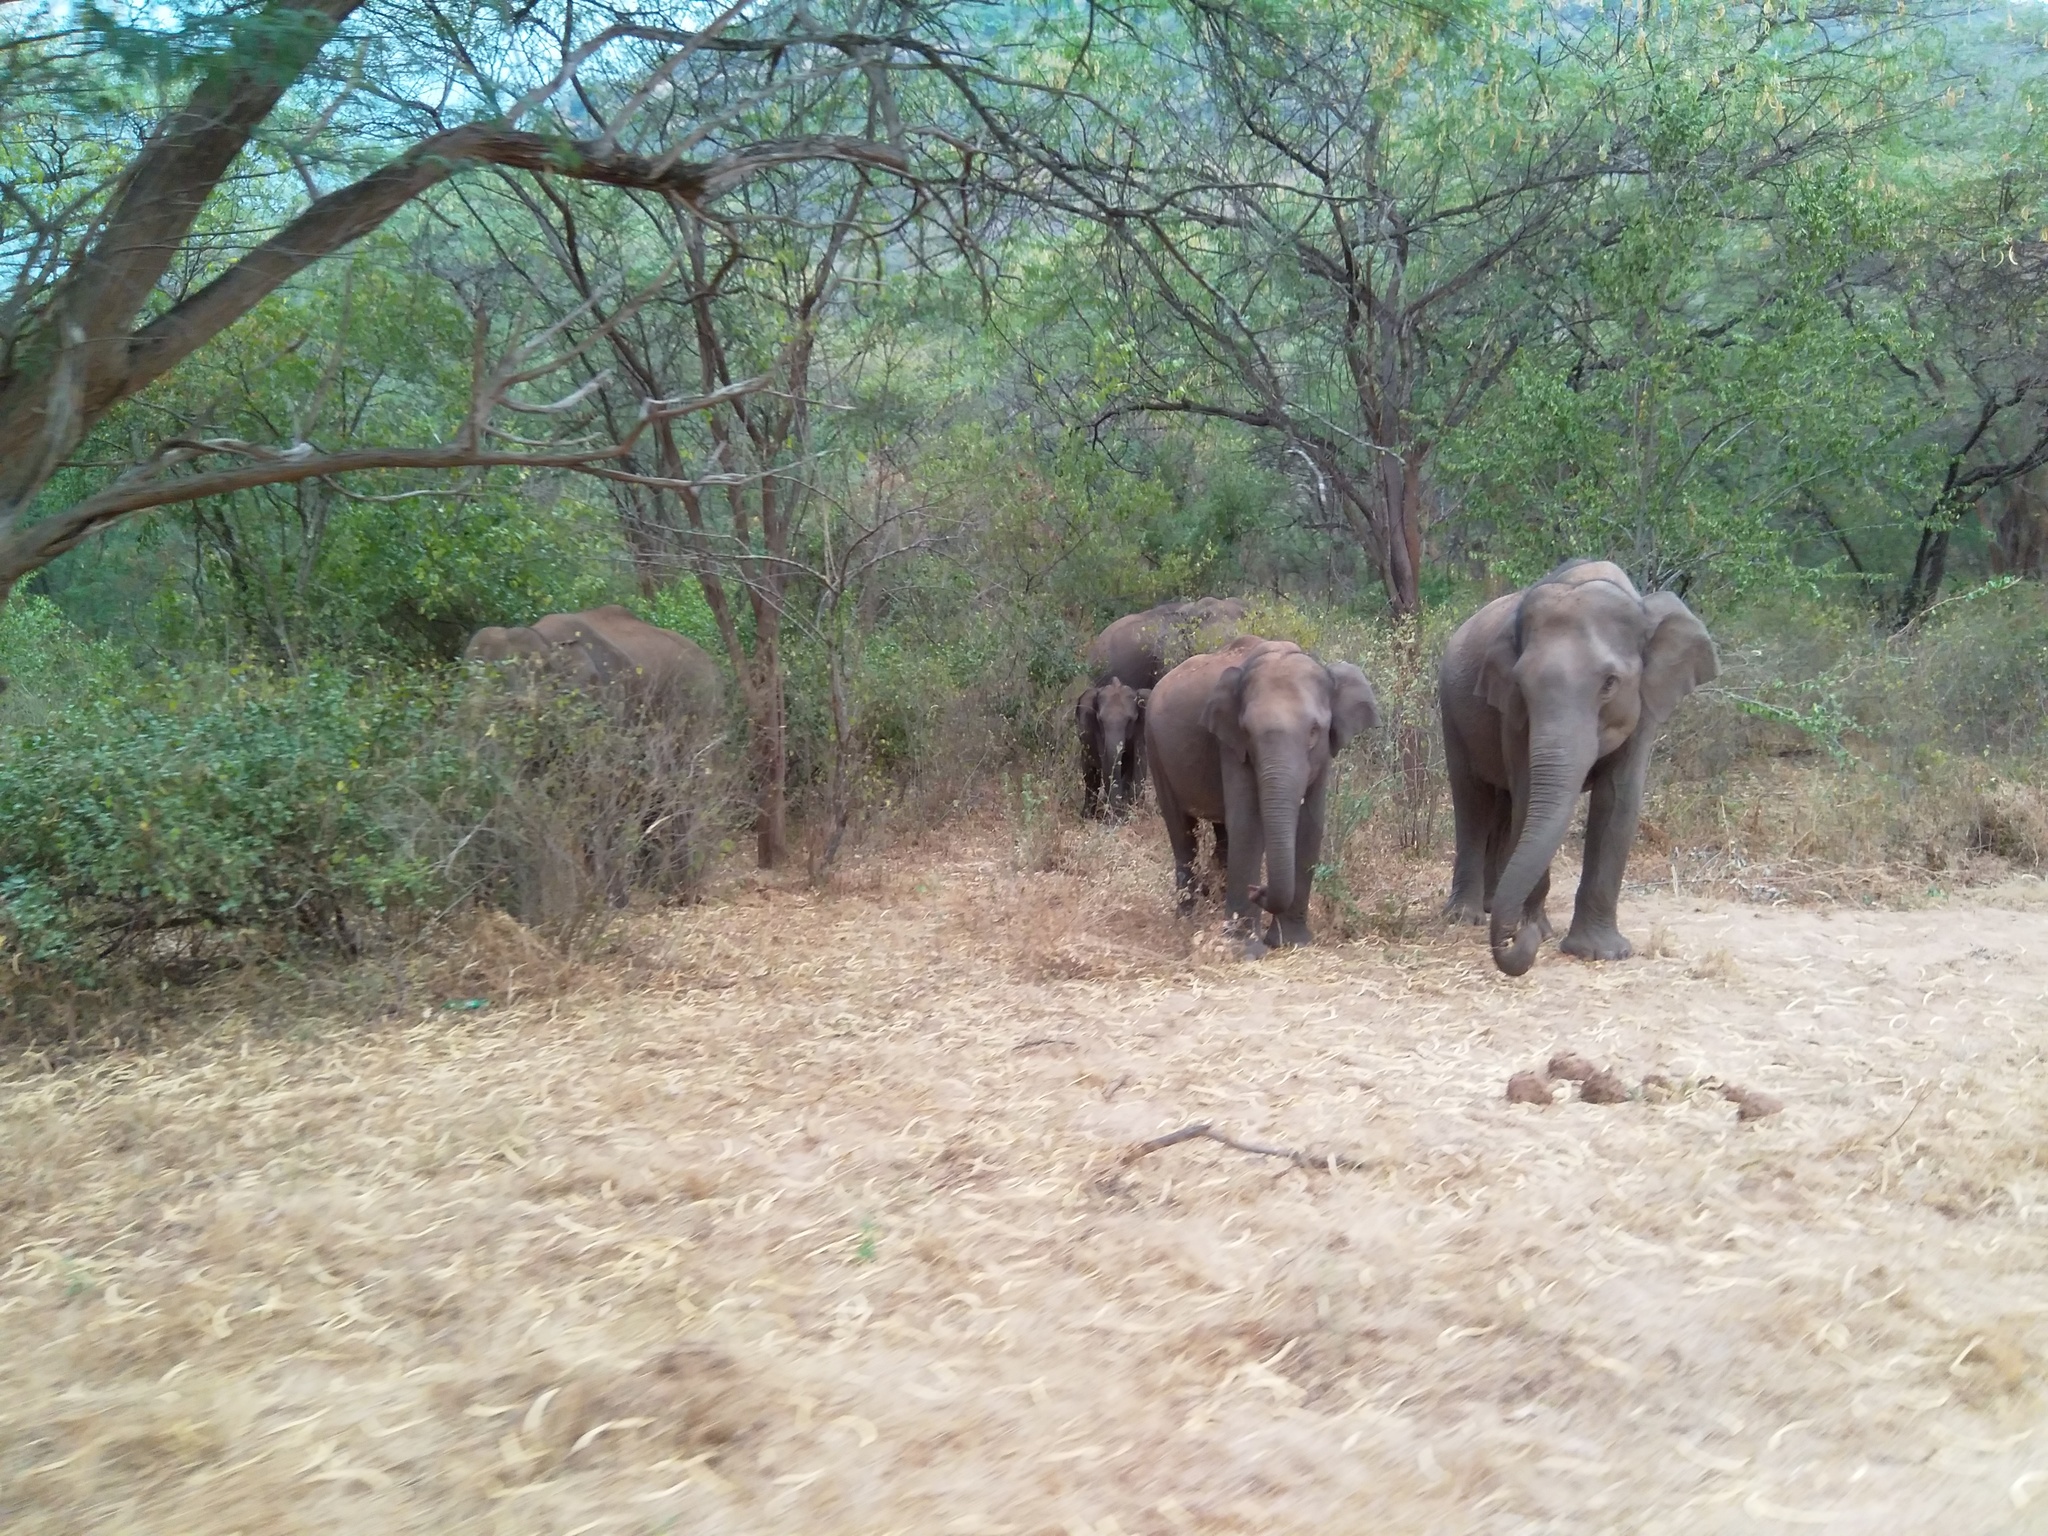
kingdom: Animalia
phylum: Chordata
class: Mammalia
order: Proboscidea
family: Elephantidae
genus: Elephas
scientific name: Elephas maximus
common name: Asian elephant
